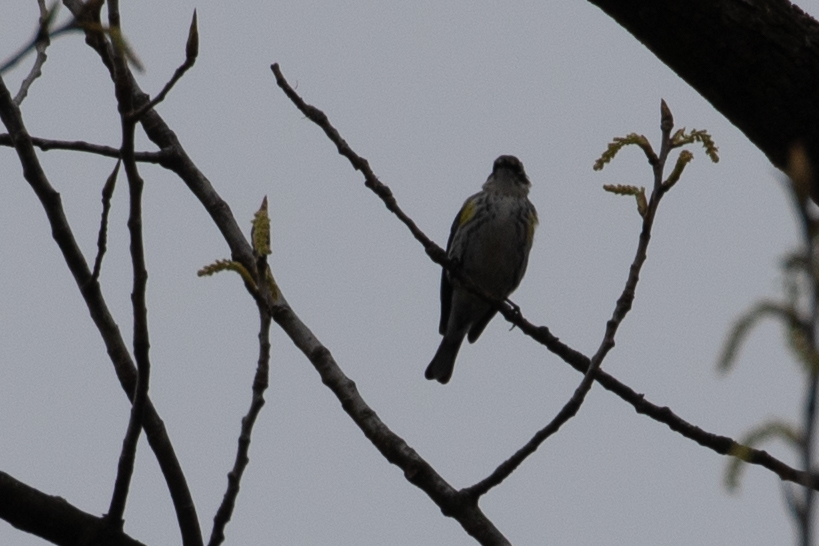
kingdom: Animalia
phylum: Chordata
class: Aves
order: Passeriformes
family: Parulidae
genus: Setophaga
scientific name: Setophaga coronata
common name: Myrtle warbler
